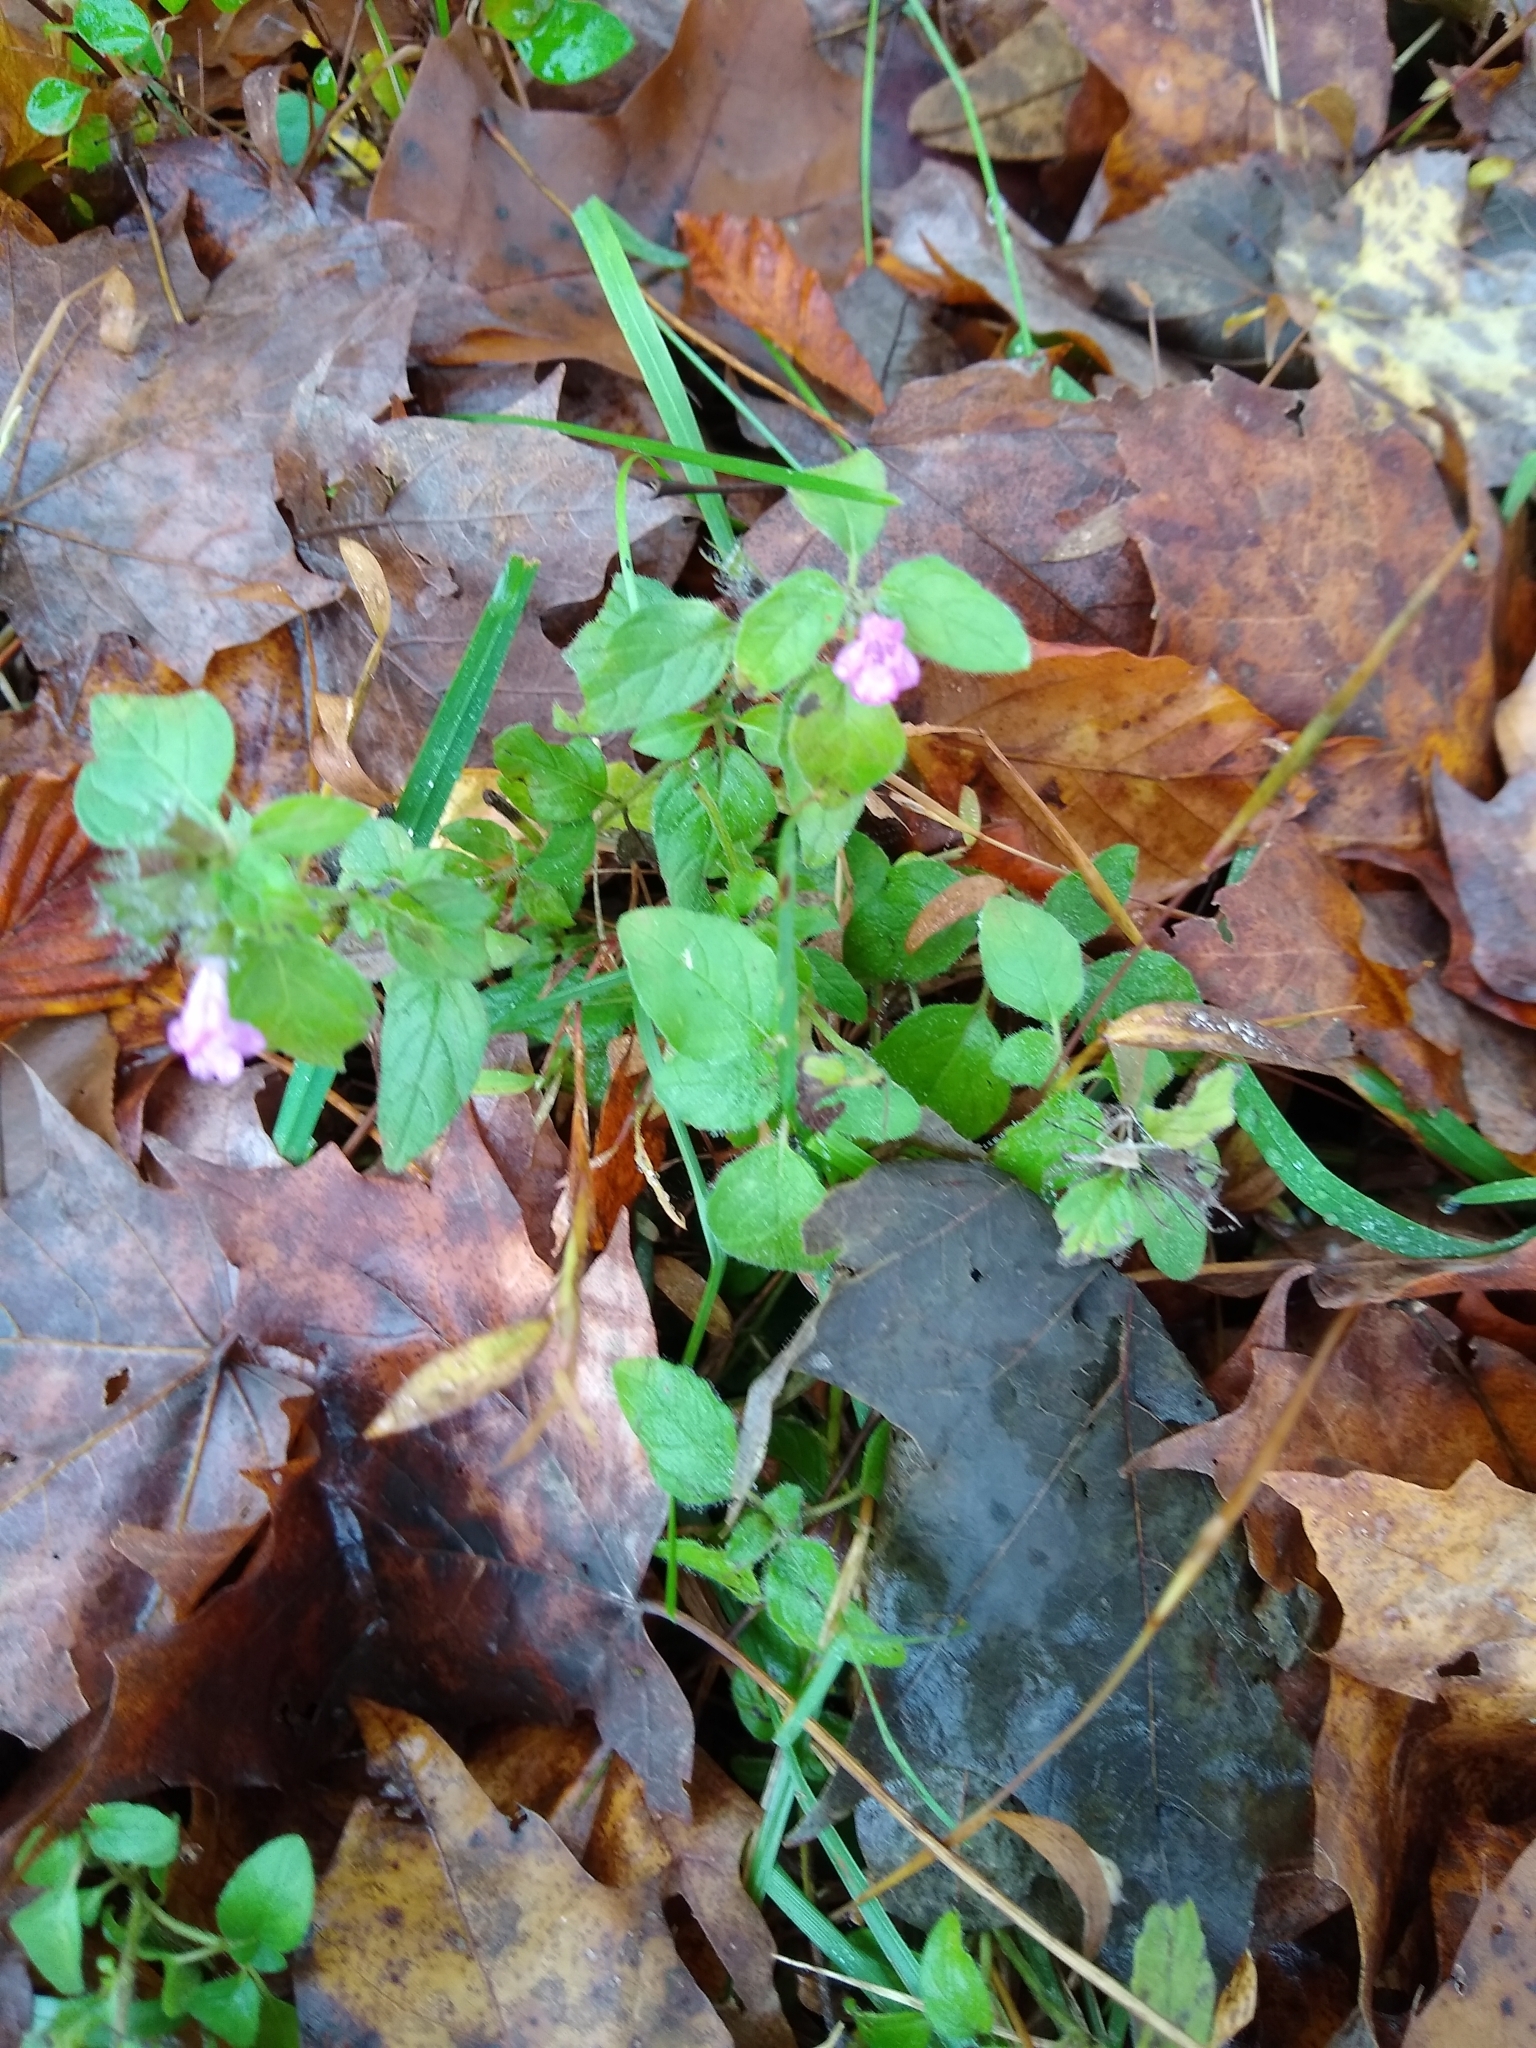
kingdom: Plantae
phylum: Tracheophyta
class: Magnoliopsida
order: Lamiales
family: Lamiaceae
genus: Clinopodium
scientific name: Clinopodium vulgare
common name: Wild basil
